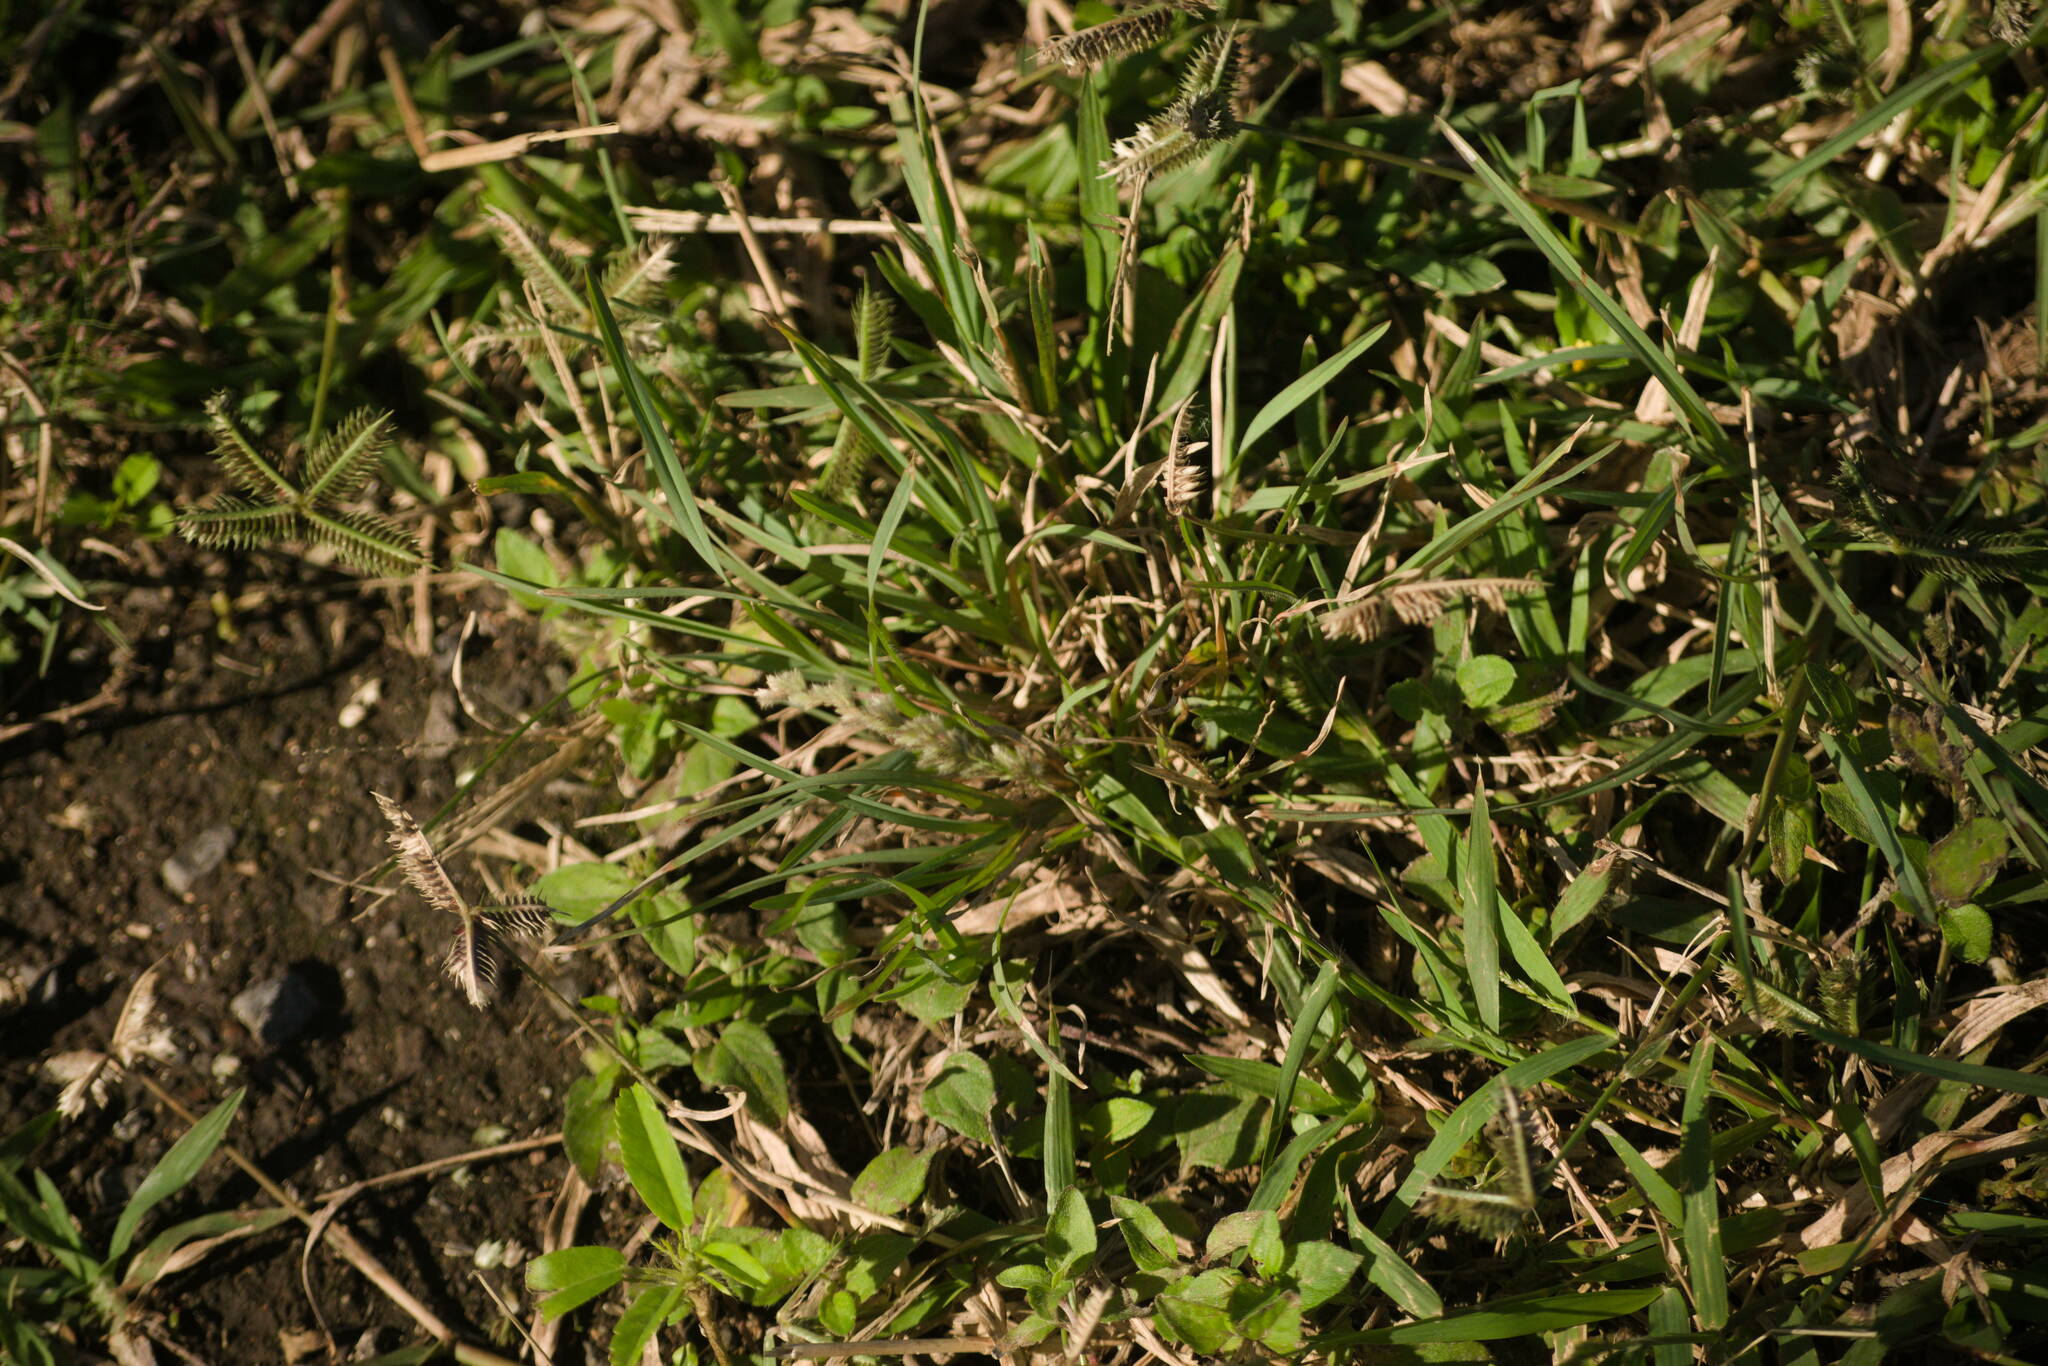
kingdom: Plantae
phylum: Tracheophyta
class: Liliopsida
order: Poales
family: Poaceae
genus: Dactyloctenium
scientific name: Dactyloctenium aegyptium
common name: Egyptian grass
